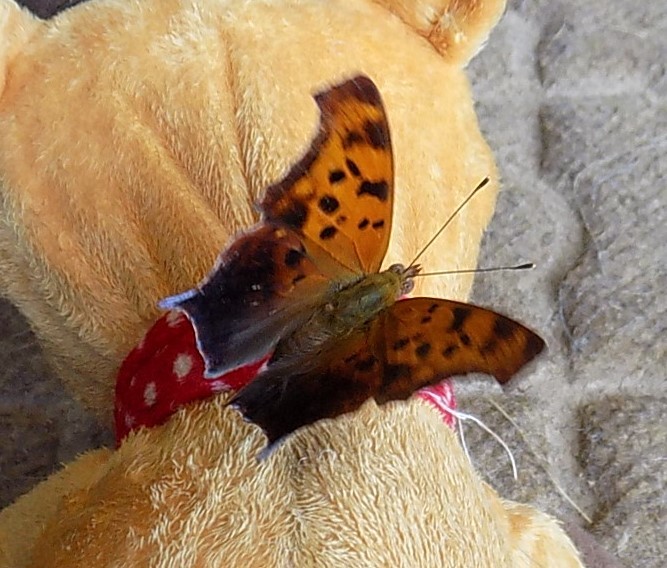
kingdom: Animalia
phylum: Arthropoda
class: Insecta
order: Lepidoptera
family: Nymphalidae
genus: Polygonia
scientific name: Polygonia interrogationis
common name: Question mark
